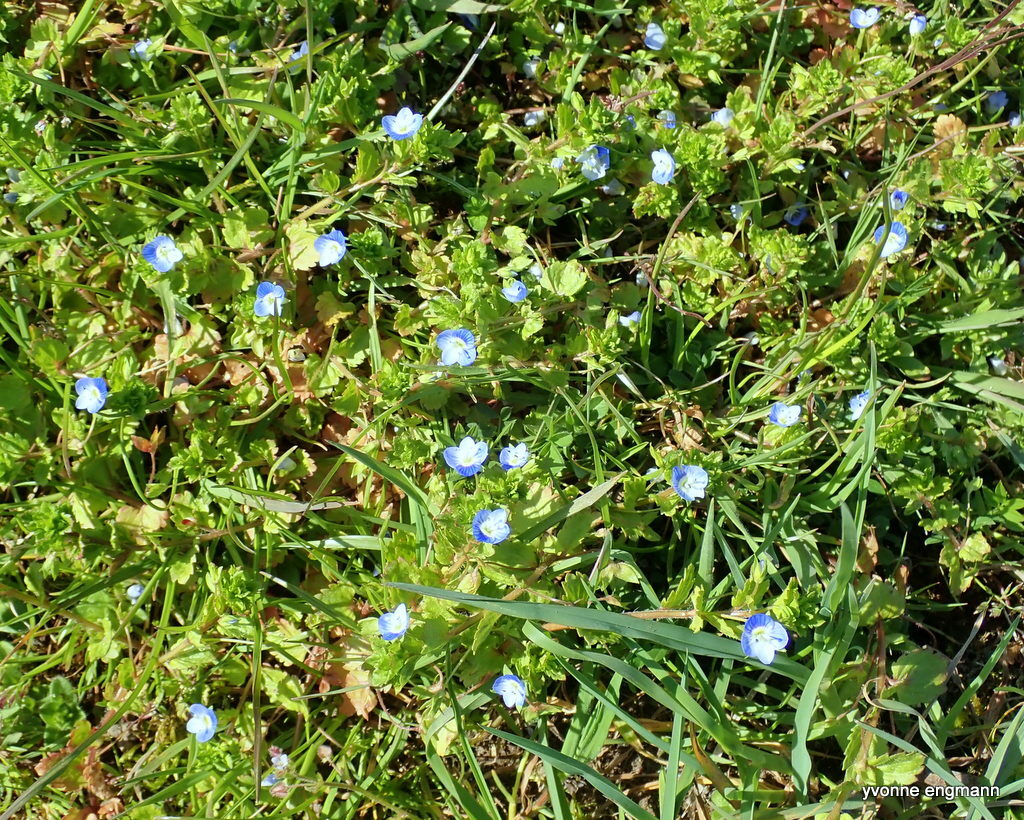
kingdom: Plantae
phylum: Tracheophyta
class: Magnoliopsida
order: Lamiales
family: Plantaginaceae
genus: Veronica
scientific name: Veronica persica
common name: Common field-speedwell
